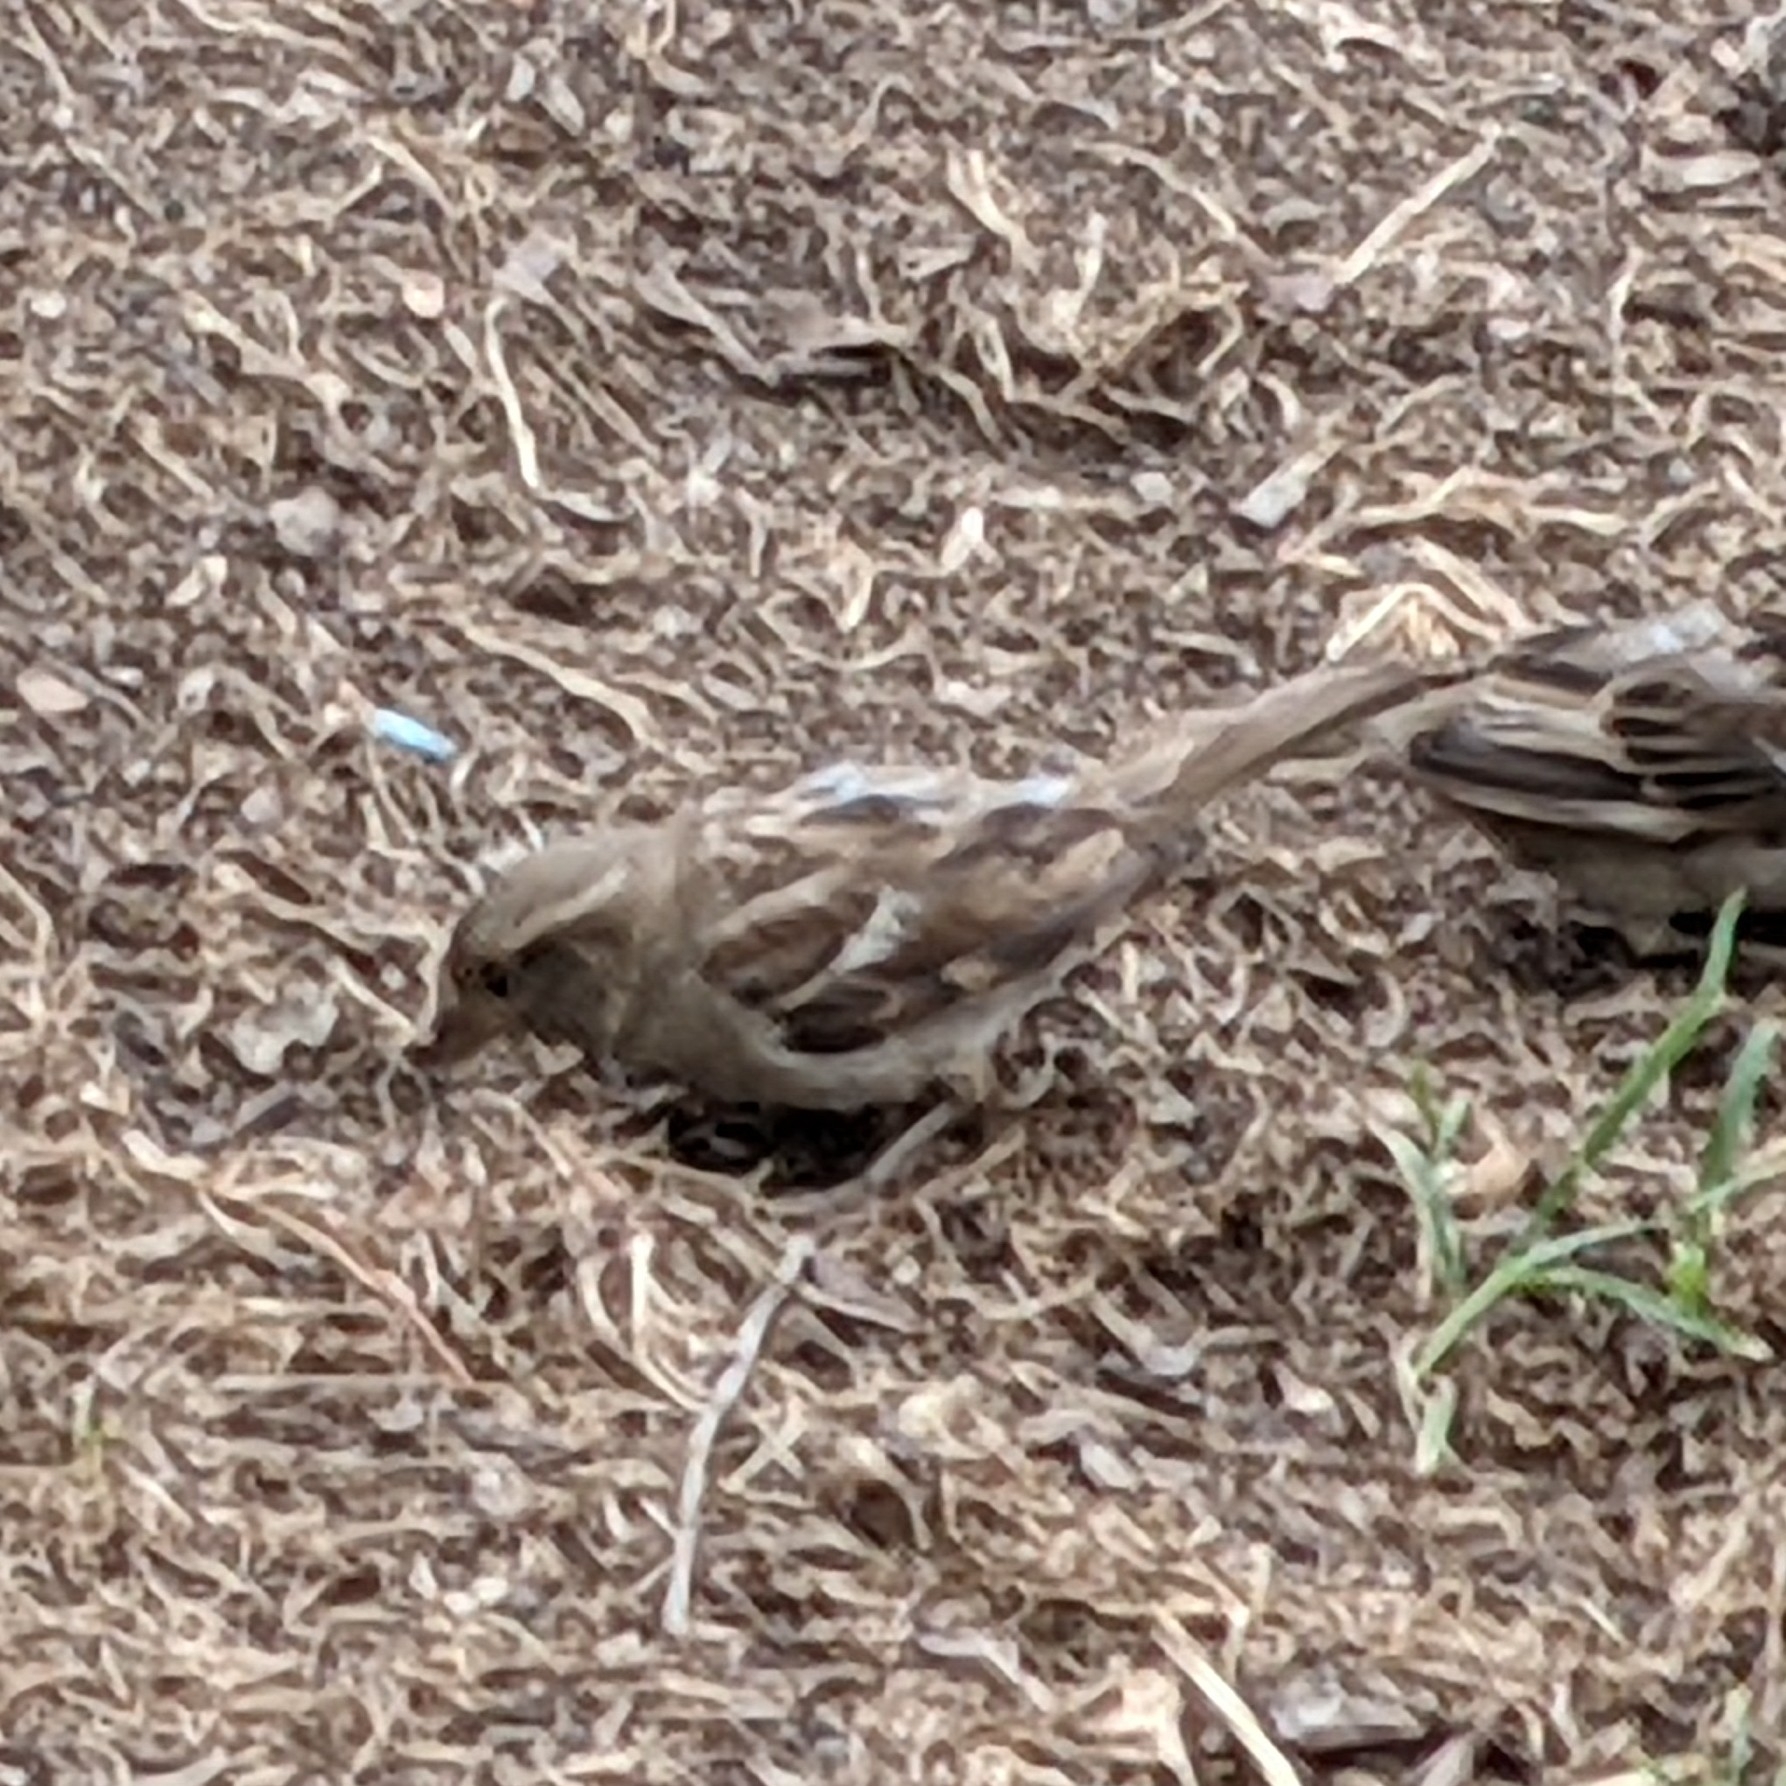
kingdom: Animalia
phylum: Chordata
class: Aves
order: Passeriformes
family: Passeridae
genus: Passer
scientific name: Passer domesticus
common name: House sparrow
